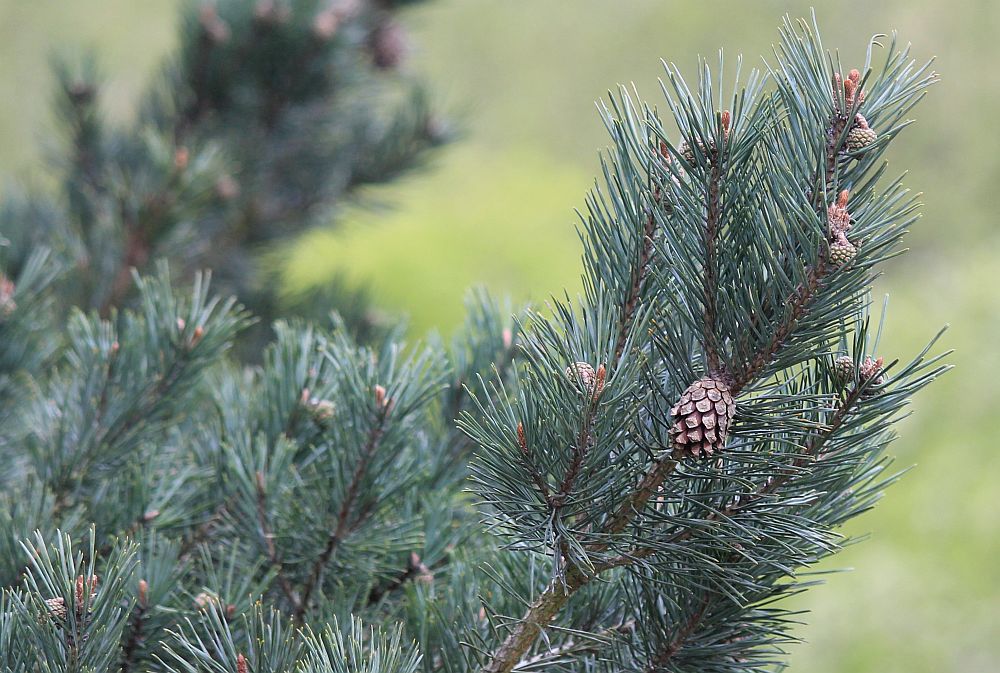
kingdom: Plantae
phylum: Tracheophyta
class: Pinopsida
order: Pinales
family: Pinaceae
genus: Pinus
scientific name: Pinus sylvestris
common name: Scots pine
